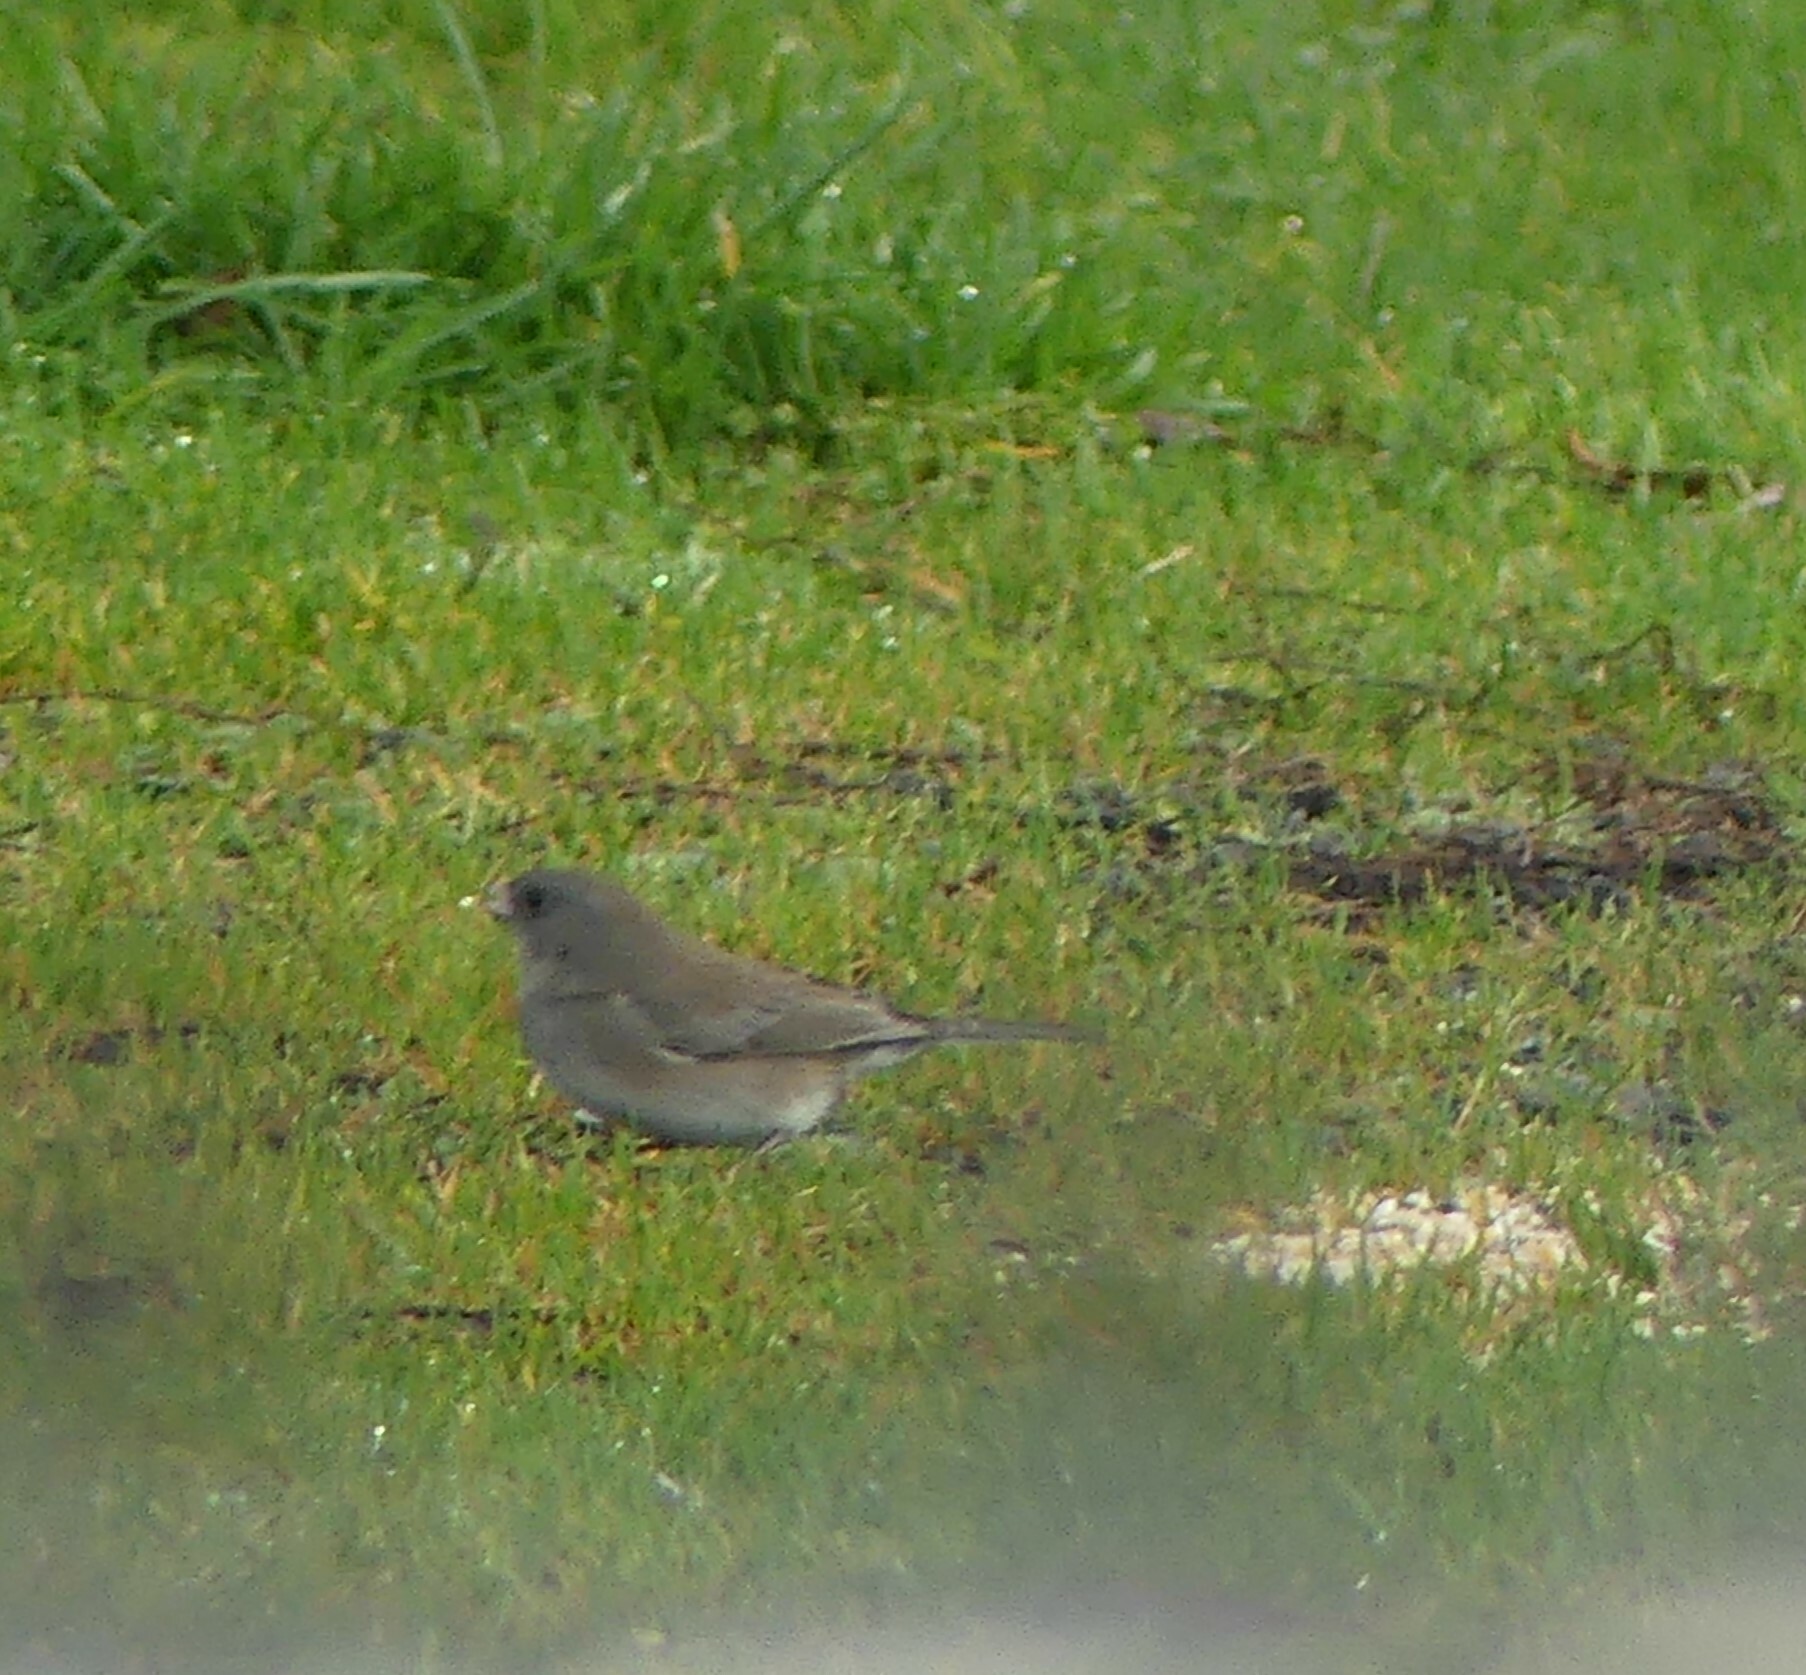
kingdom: Animalia
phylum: Chordata
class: Aves
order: Passeriformes
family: Passerellidae
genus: Junco
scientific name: Junco hyemalis
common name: Dark-eyed junco
